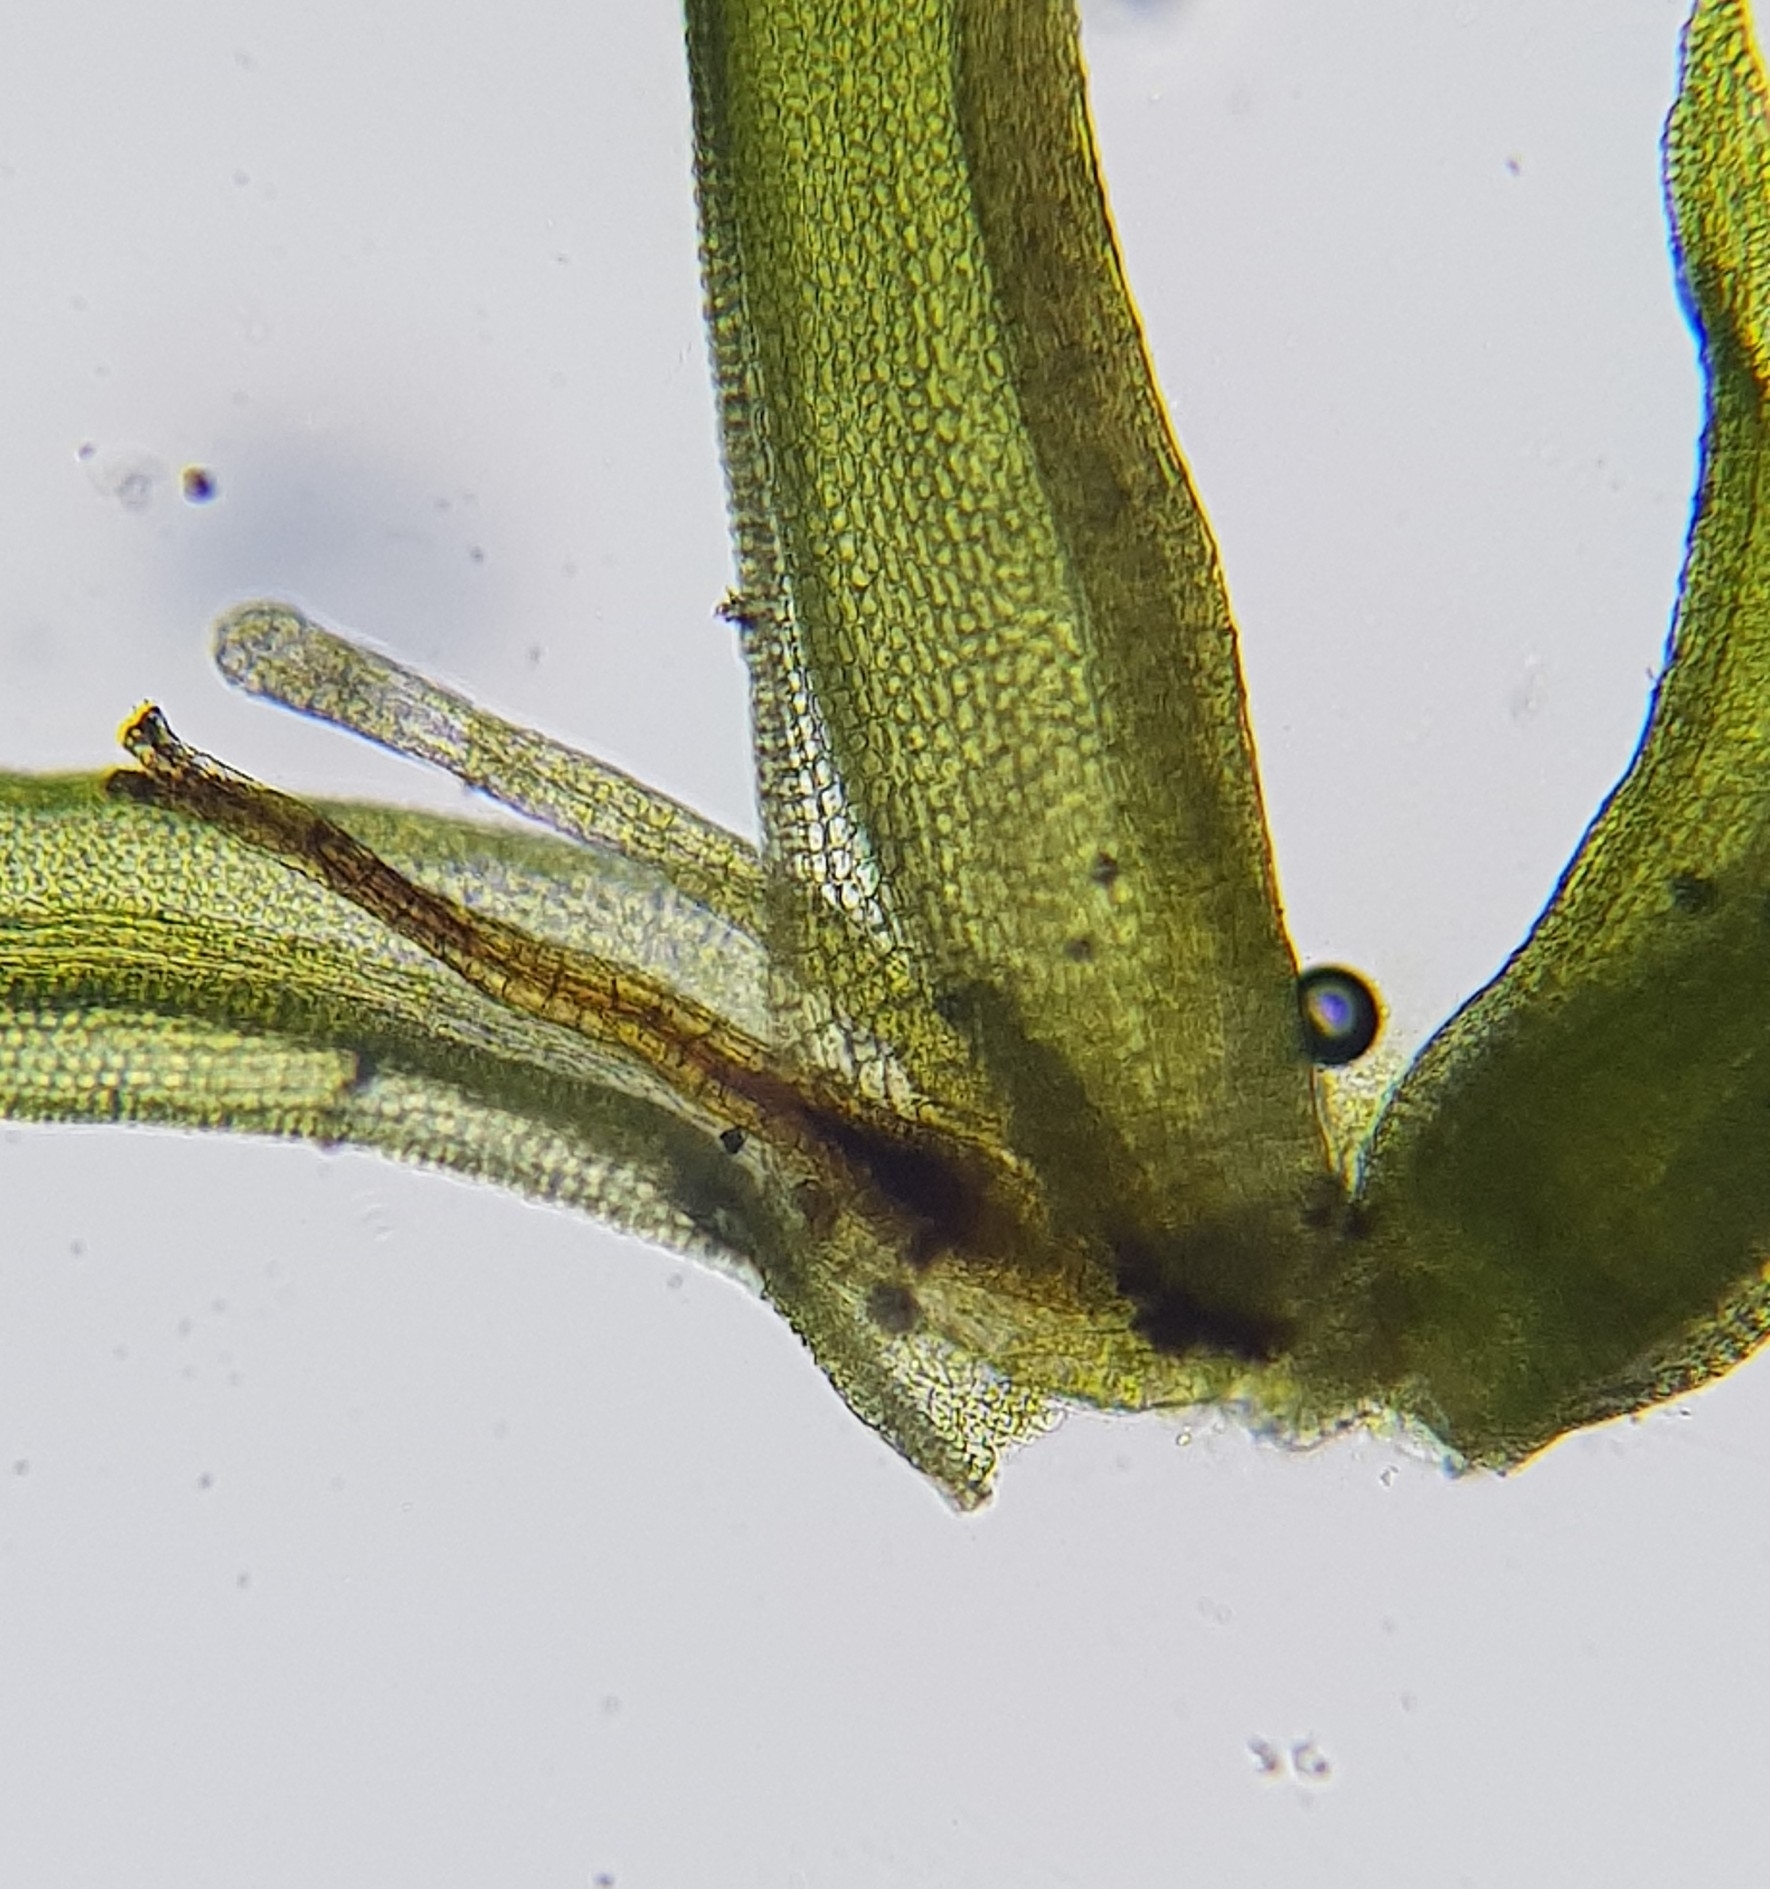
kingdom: Plantae
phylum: Bryophyta
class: Bryopsida
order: Pottiales
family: Pottiaceae
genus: Bryoerythrophyllum
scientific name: Bryoerythrophyllum recurvirostrum
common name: Red beard moss
